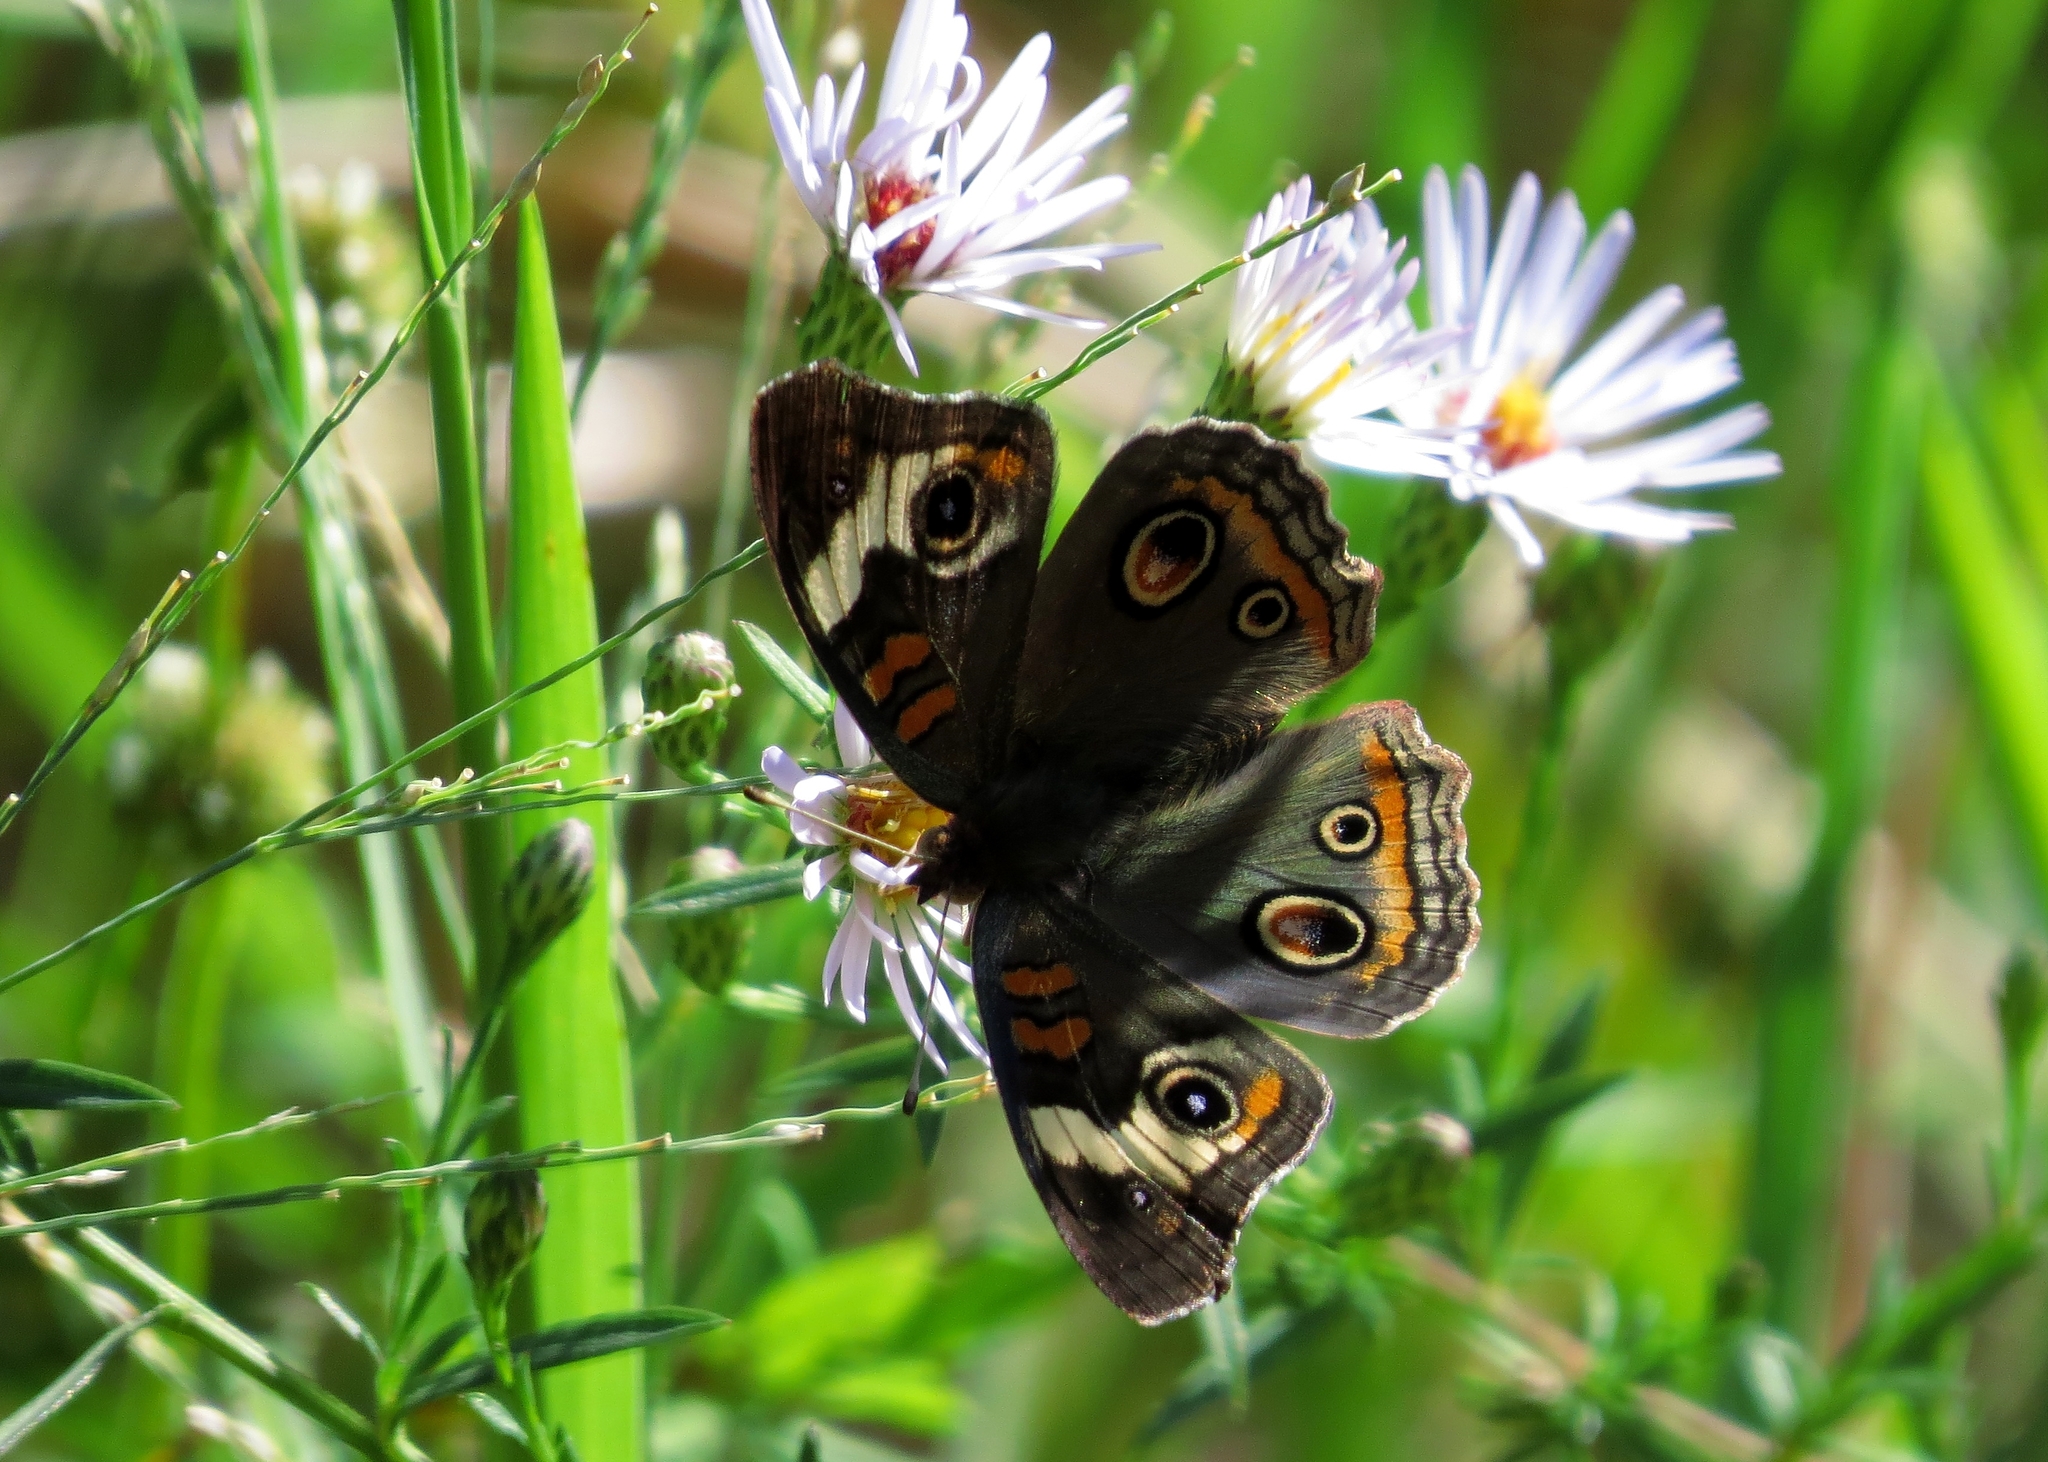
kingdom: Animalia
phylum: Arthropoda
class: Insecta
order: Lepidoptera
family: Nymphalidae
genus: Junonia
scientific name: Junonia coenia
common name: Common buckeye
